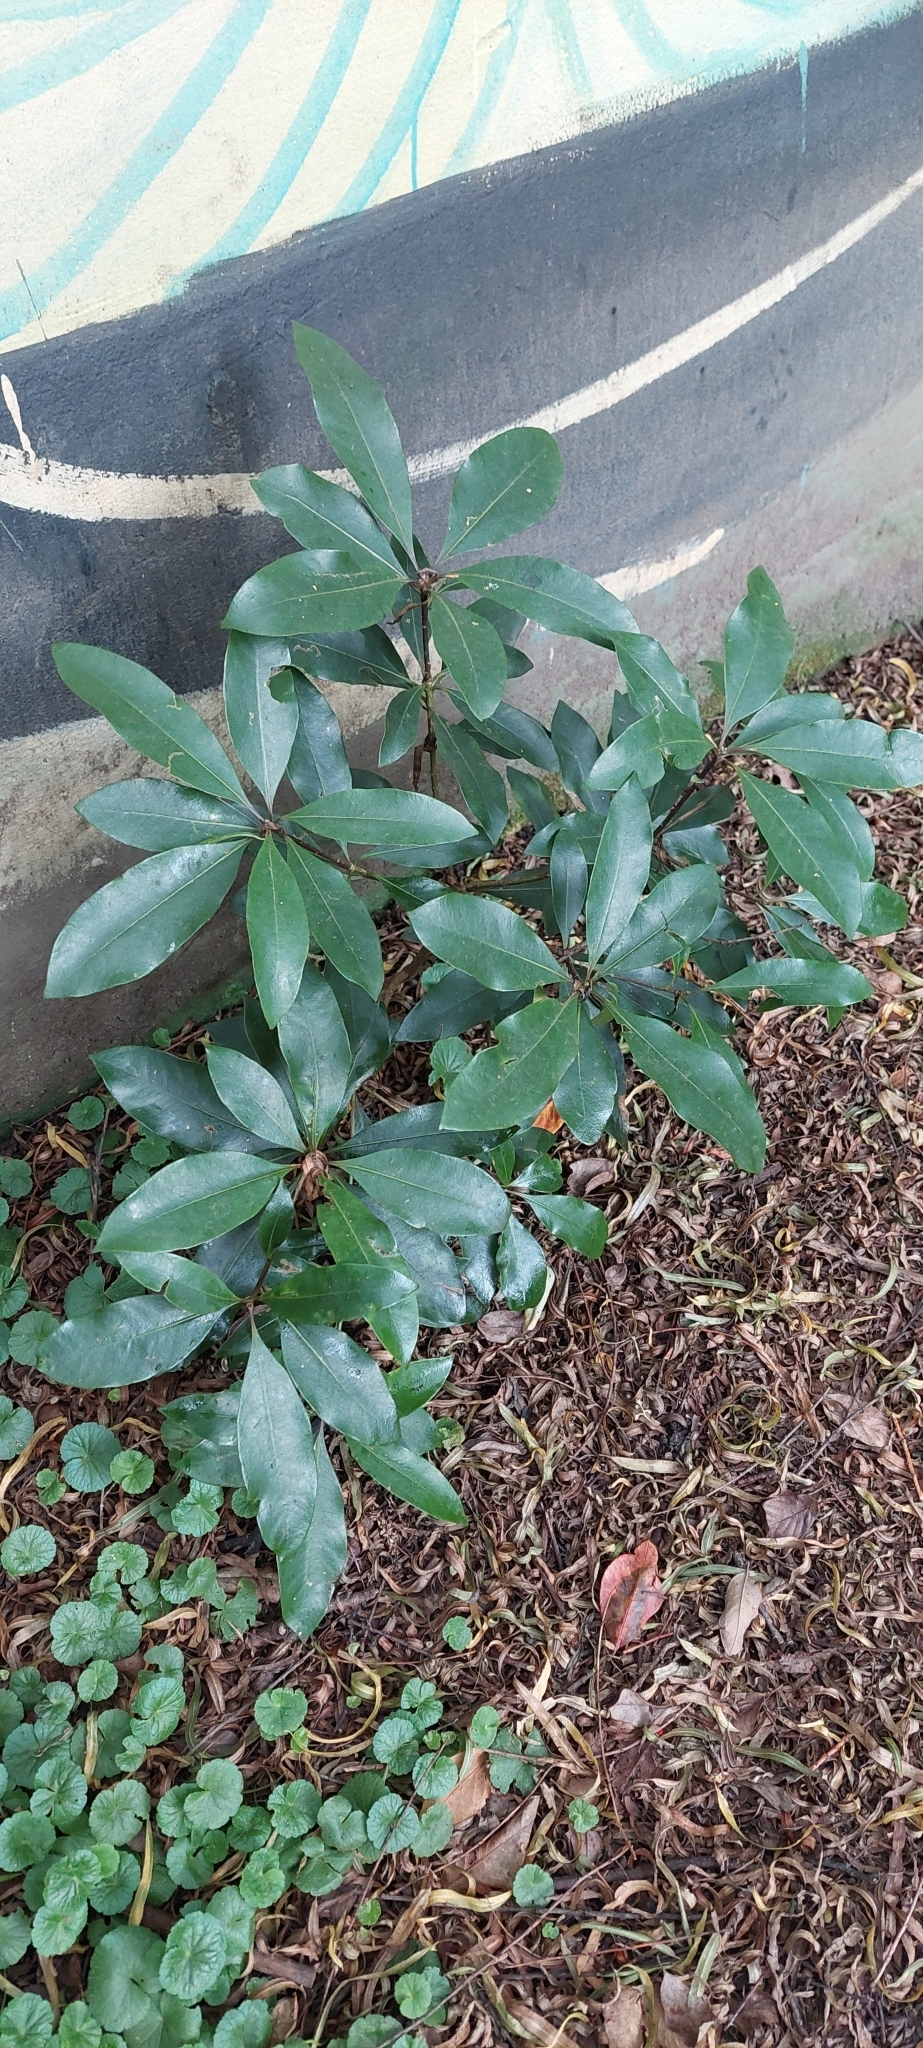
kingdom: Plantae
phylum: Tracheophyta
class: Magnoliopsida
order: Apiales
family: Pittosporaceae
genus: Pittosporum
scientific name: Pittosporum undulatum
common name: Australian cheesewood
